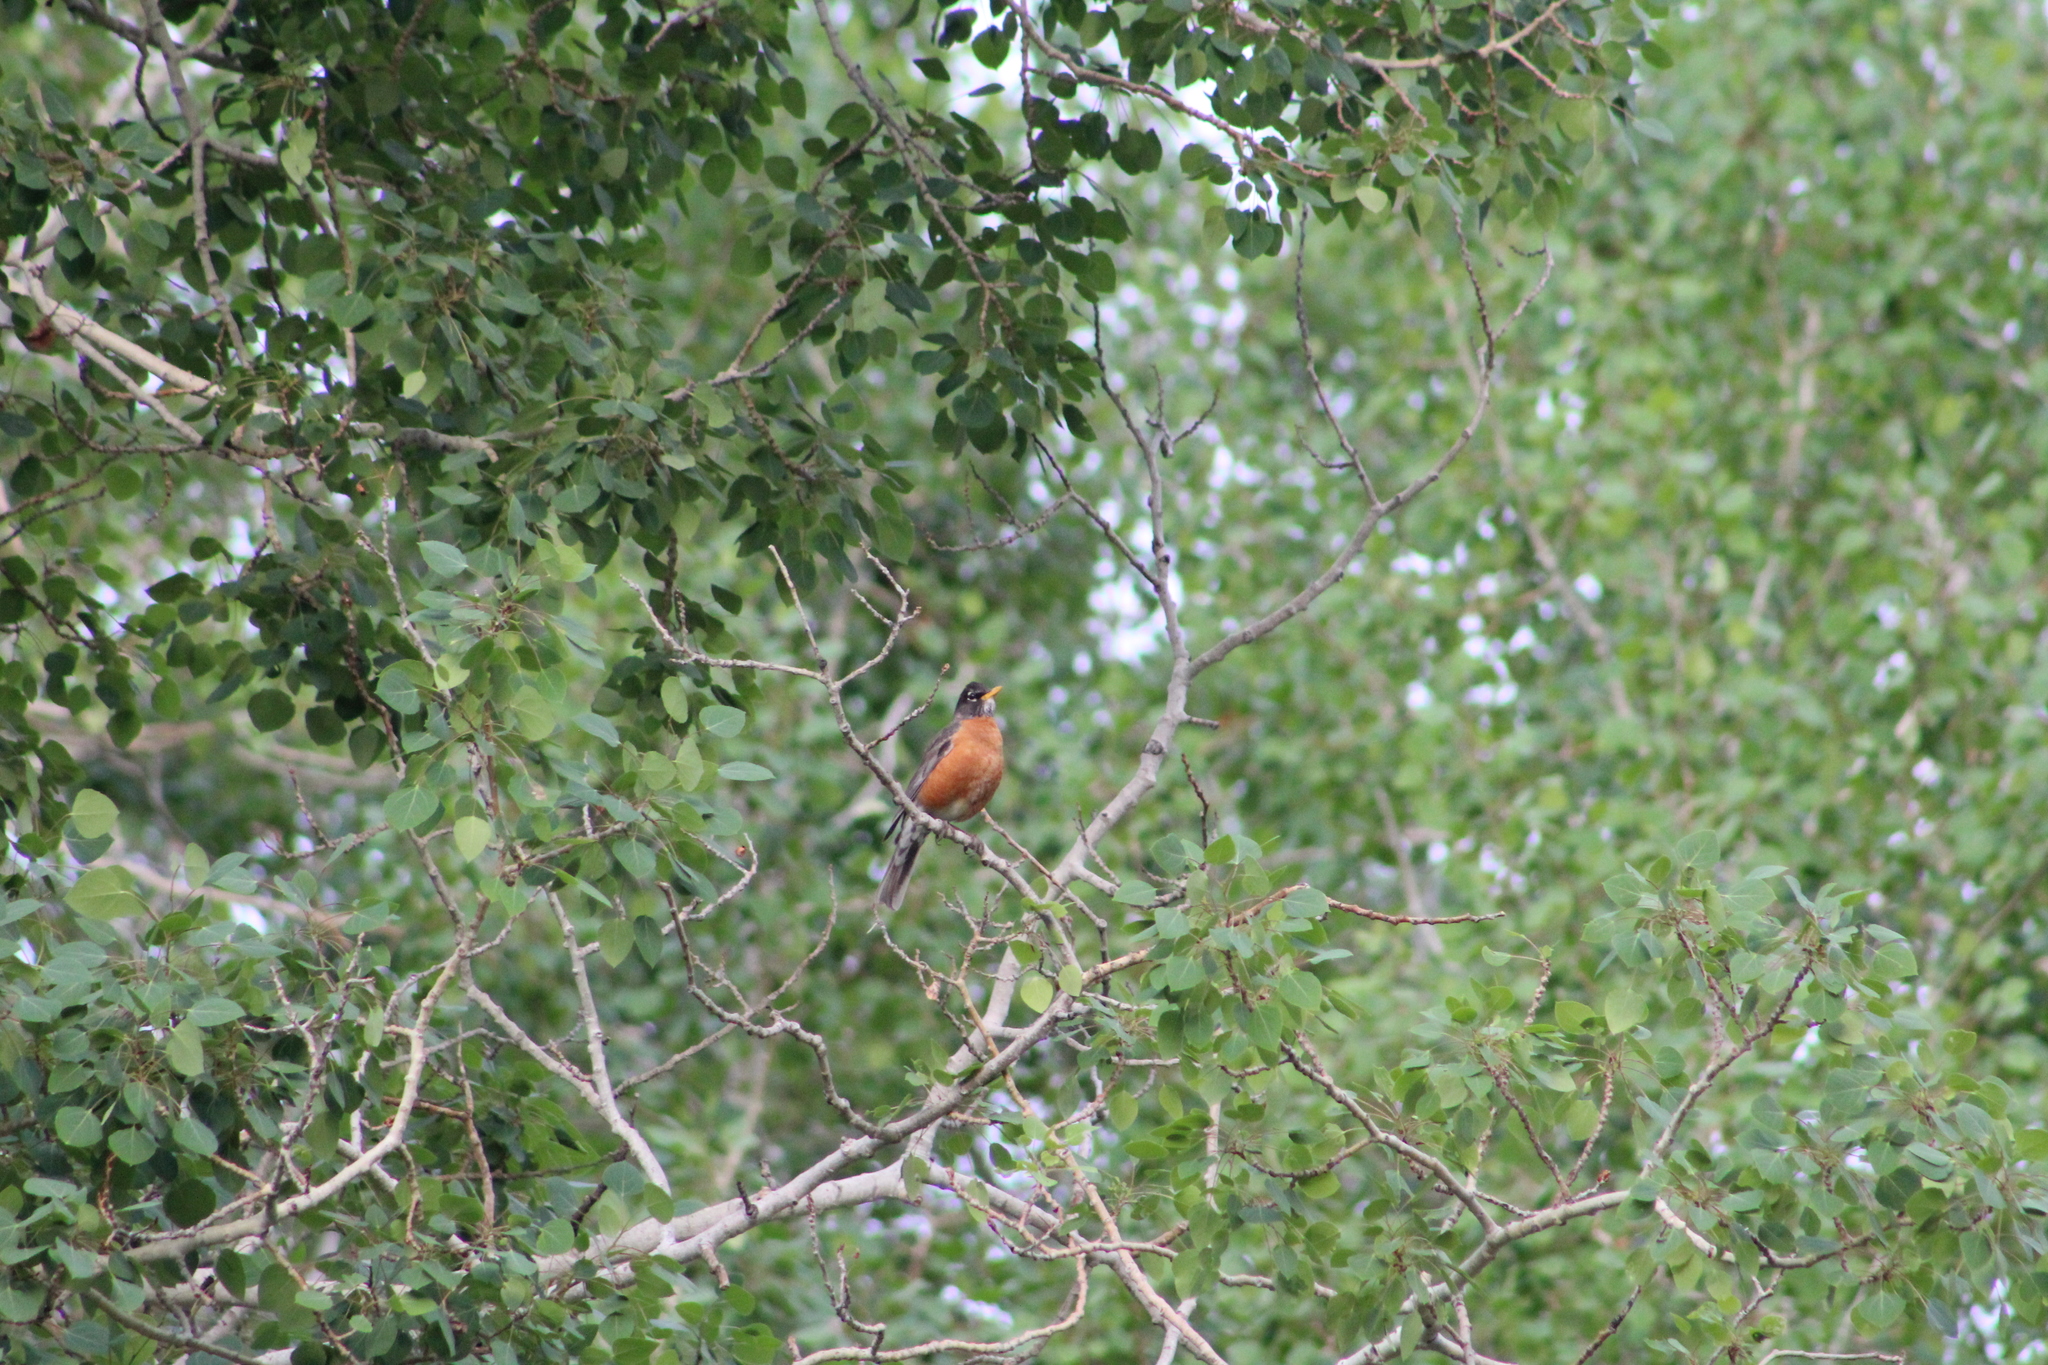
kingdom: Animalia
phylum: Chordata
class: Aves
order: Passeriformes
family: Turdidae
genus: Turdus
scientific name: Turdus migratorius
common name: American robin
